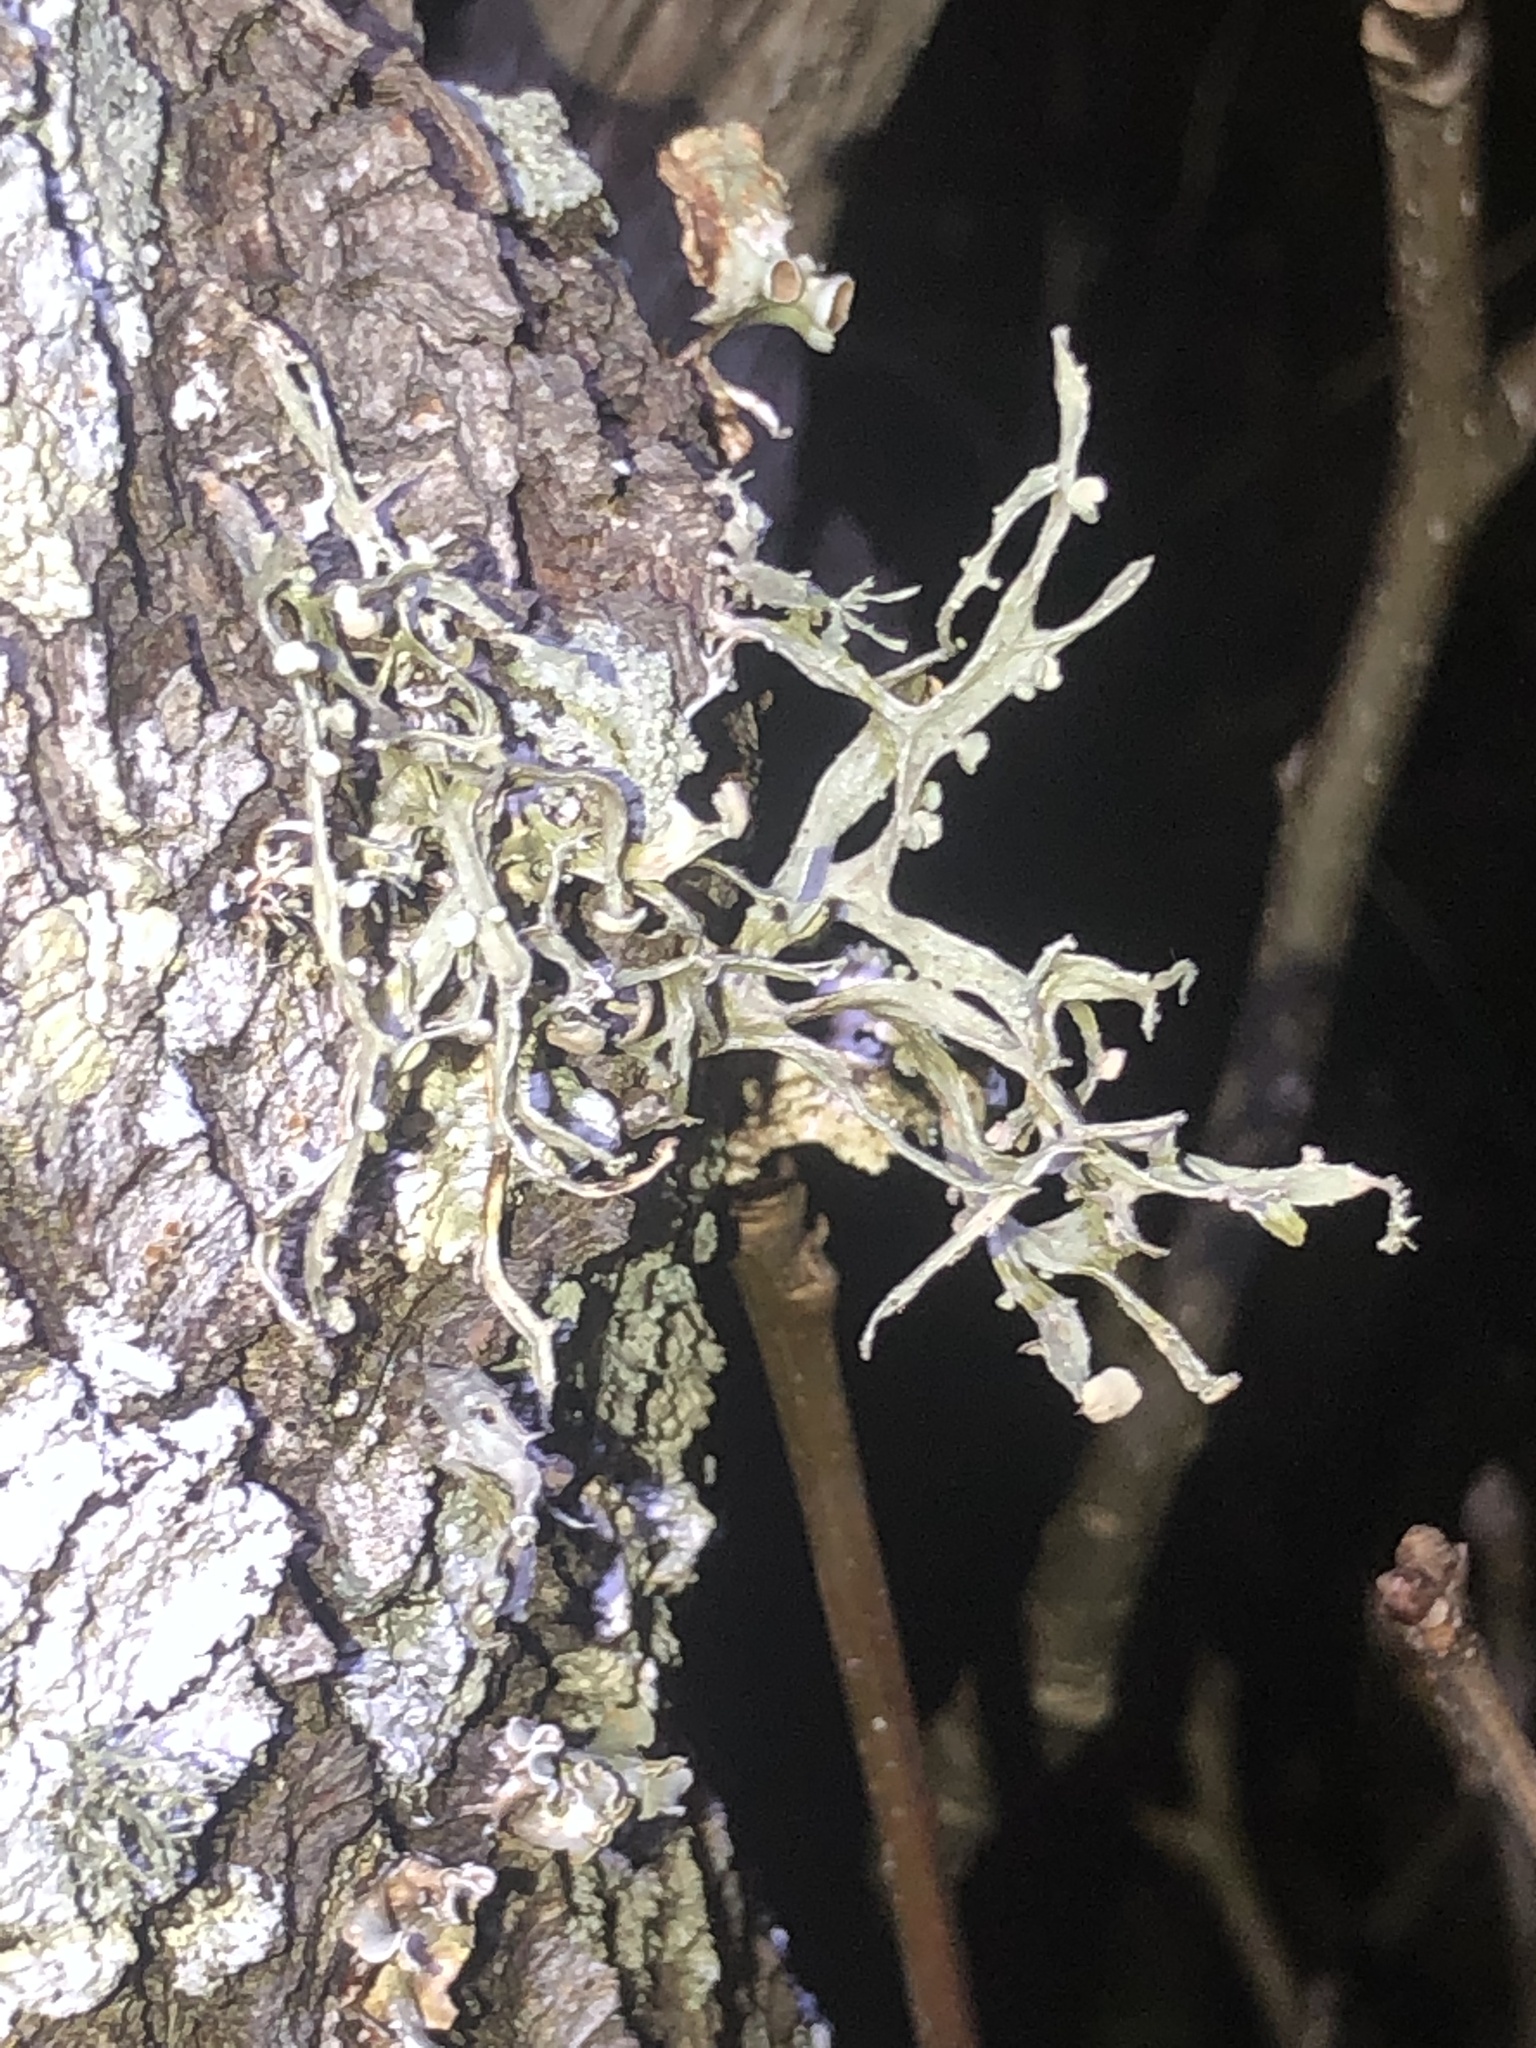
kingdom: Fungi
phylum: Ascomycota
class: Lecanoromycetes
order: Lecanorales
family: Ramalinaceae
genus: Ramalina
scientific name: Ramalina stenospora
